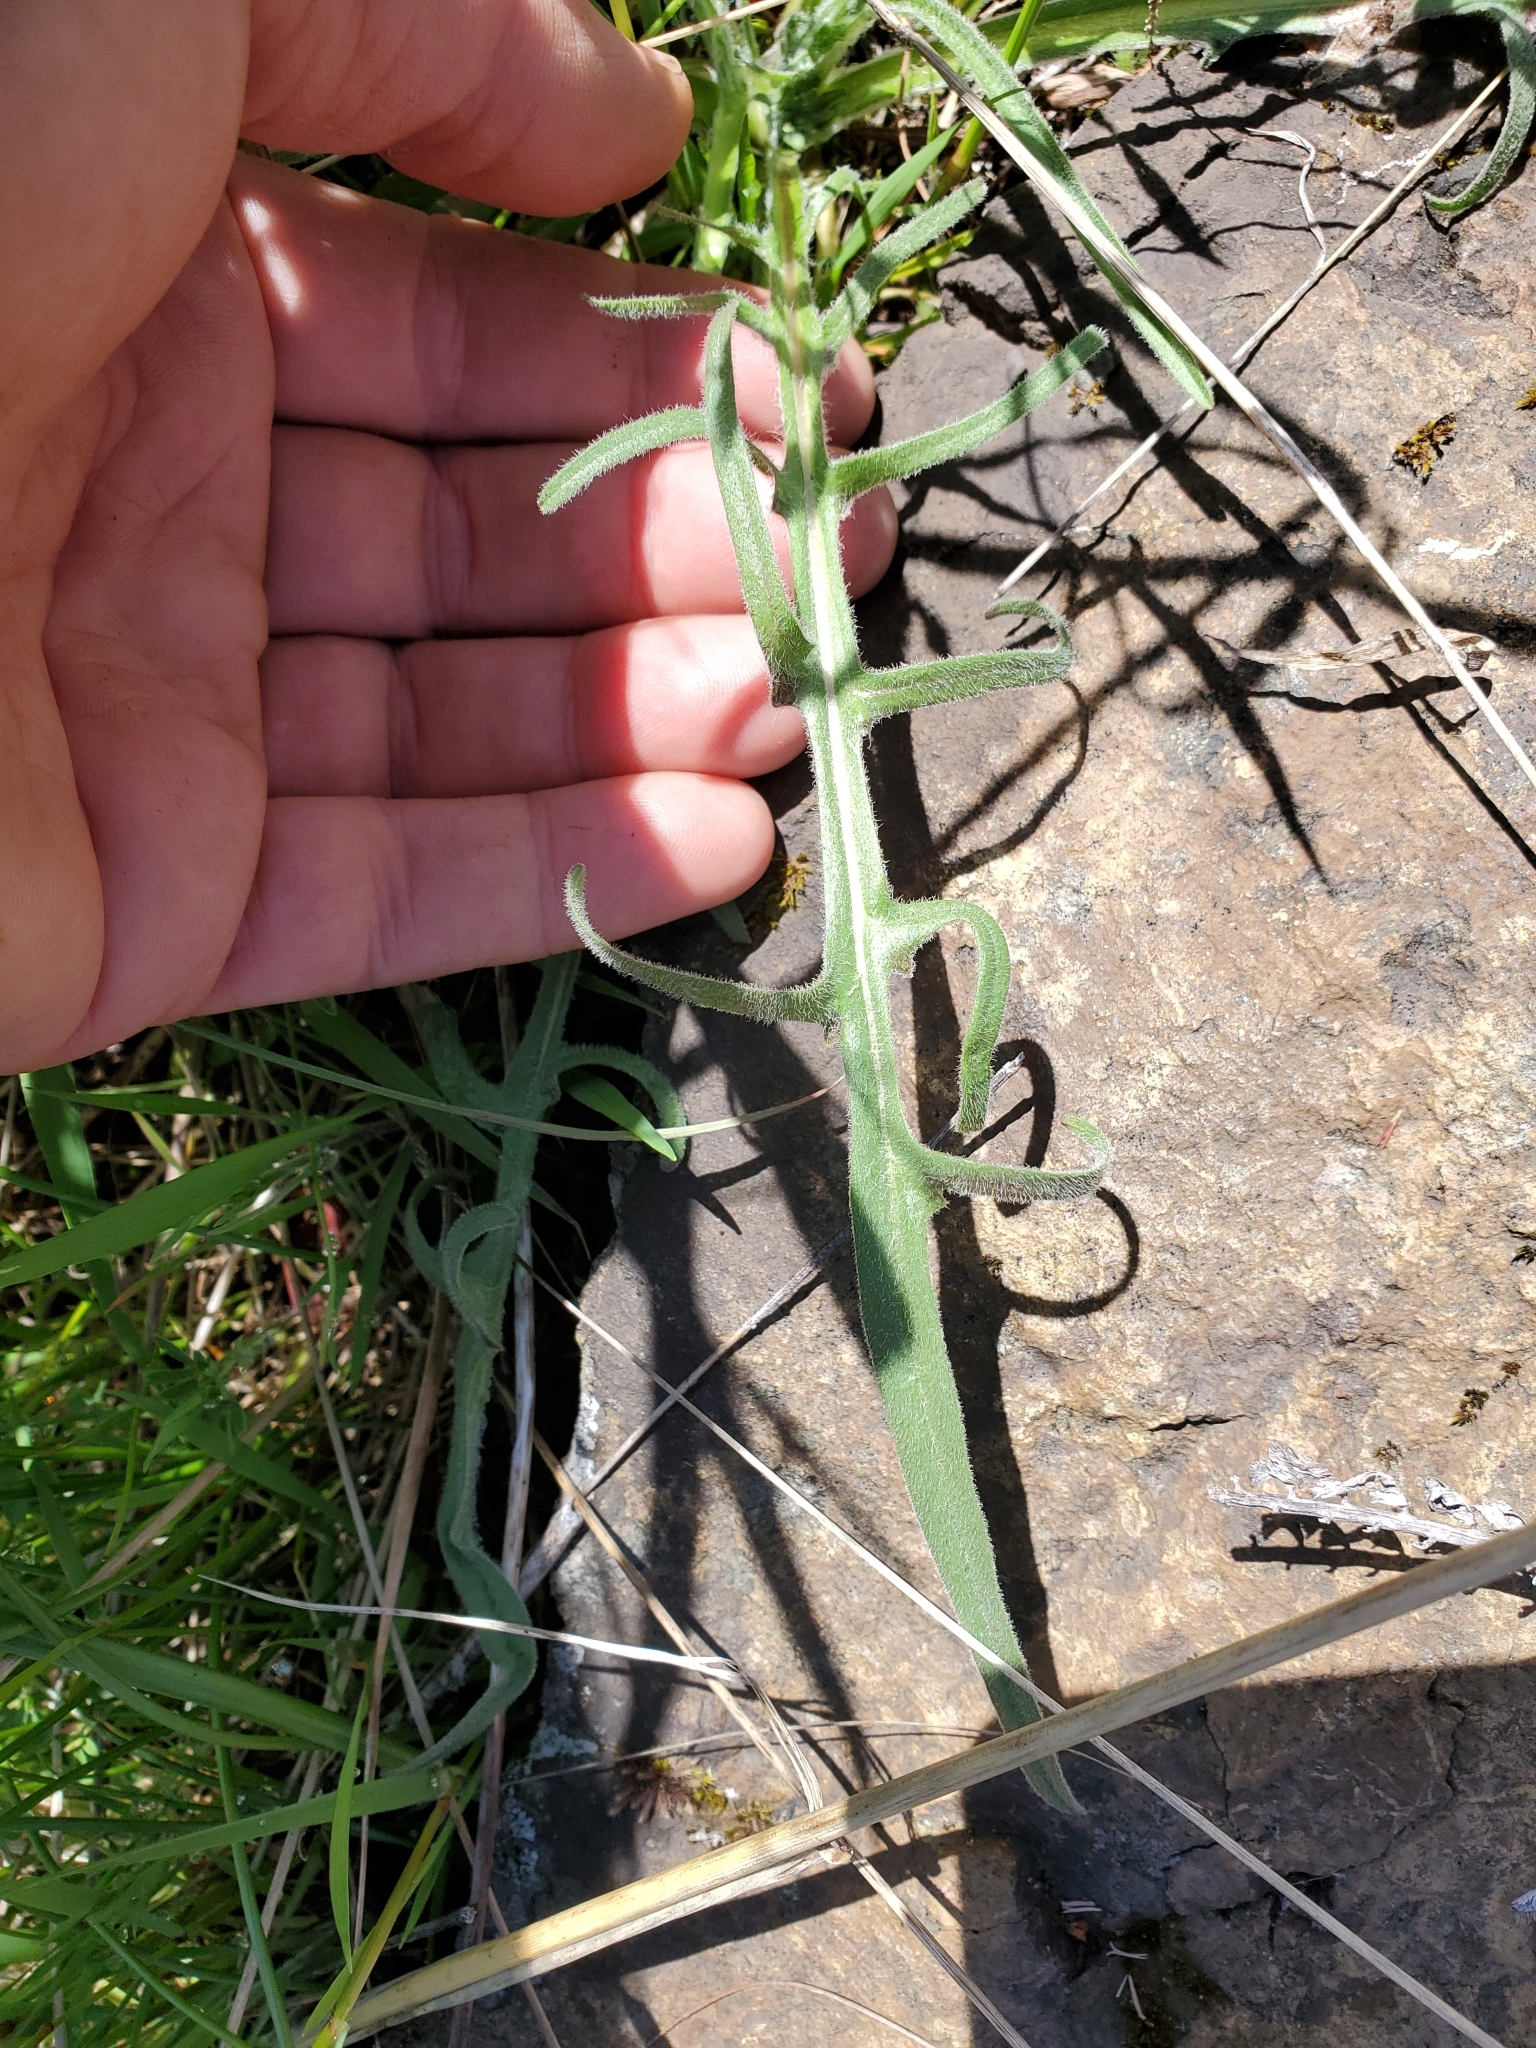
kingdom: Plantae
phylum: Tracheophyta
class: Magnoliopsida
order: Asterales
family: Asteraceae
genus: Agoseris
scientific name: Agoseris grandiflora
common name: Grassland agoseris
